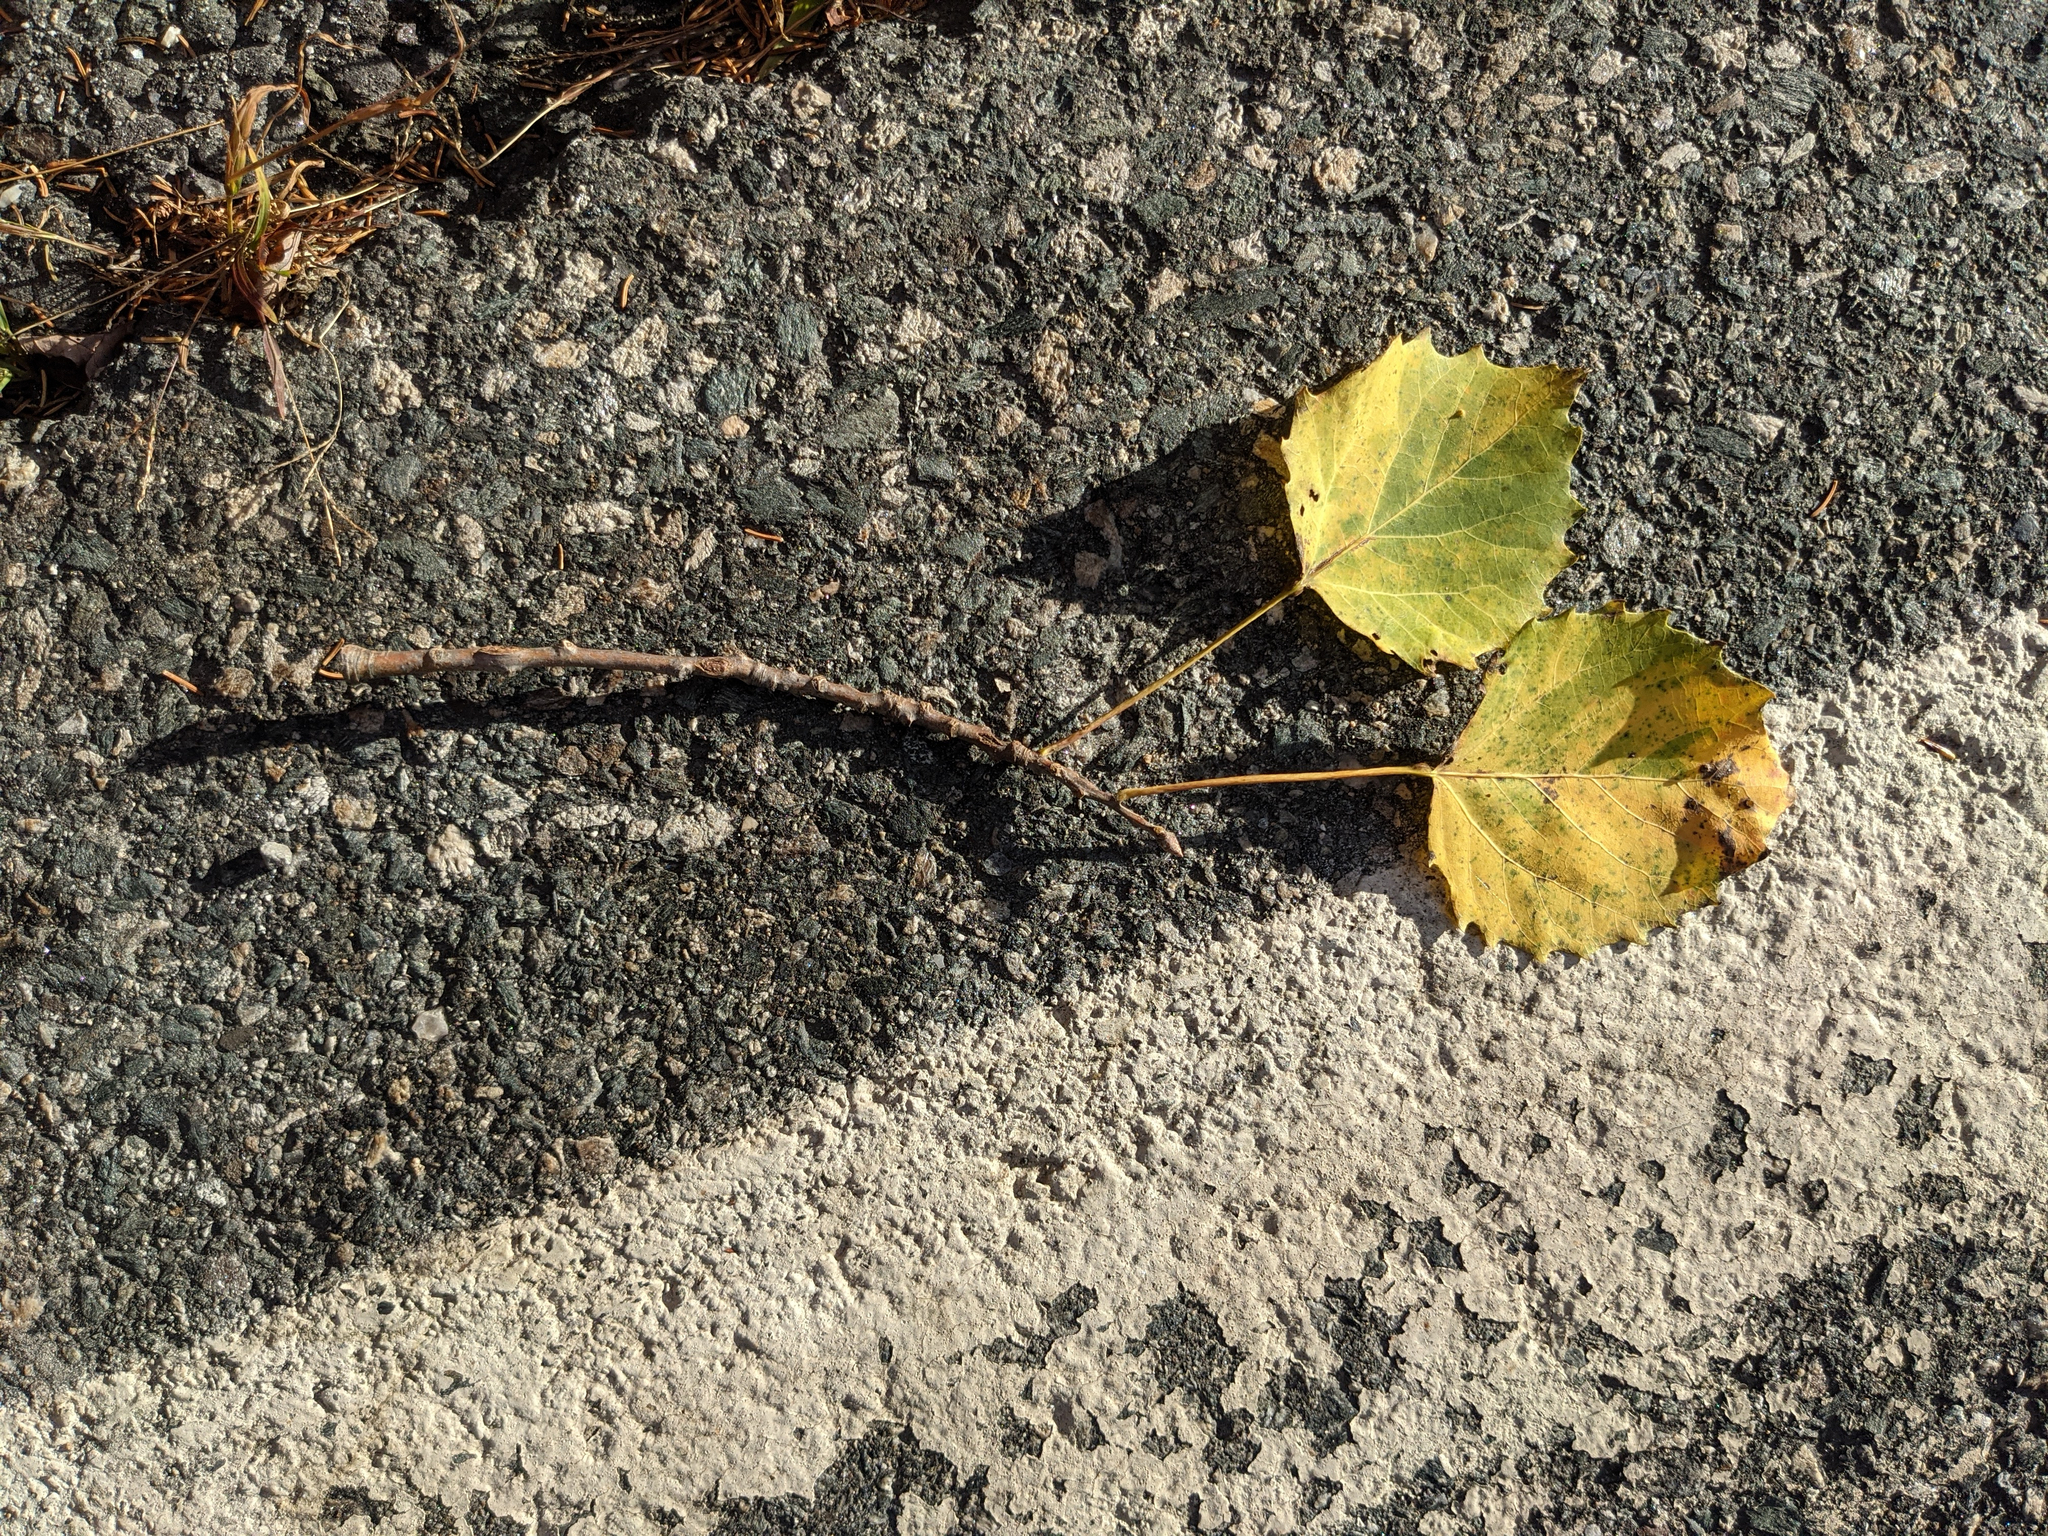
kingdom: Plantae
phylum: Tracheophyta
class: Magnoliopsida
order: Malpighiales
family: Salicaceae
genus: Populus
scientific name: Populus grandidentata
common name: Bigtooth aspen
